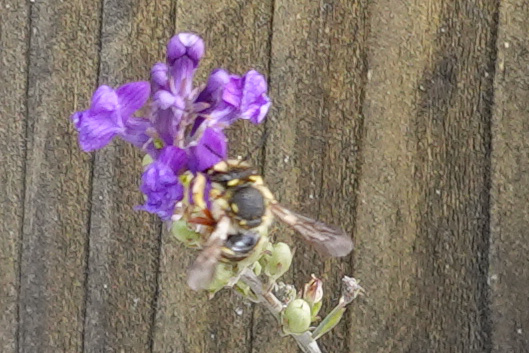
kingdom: Animalia
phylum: Arthropoda
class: Insecta
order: Hymenoptera
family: Megachilidae
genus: Anthidium
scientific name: Anthidium manicatum
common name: Wool carder bee
